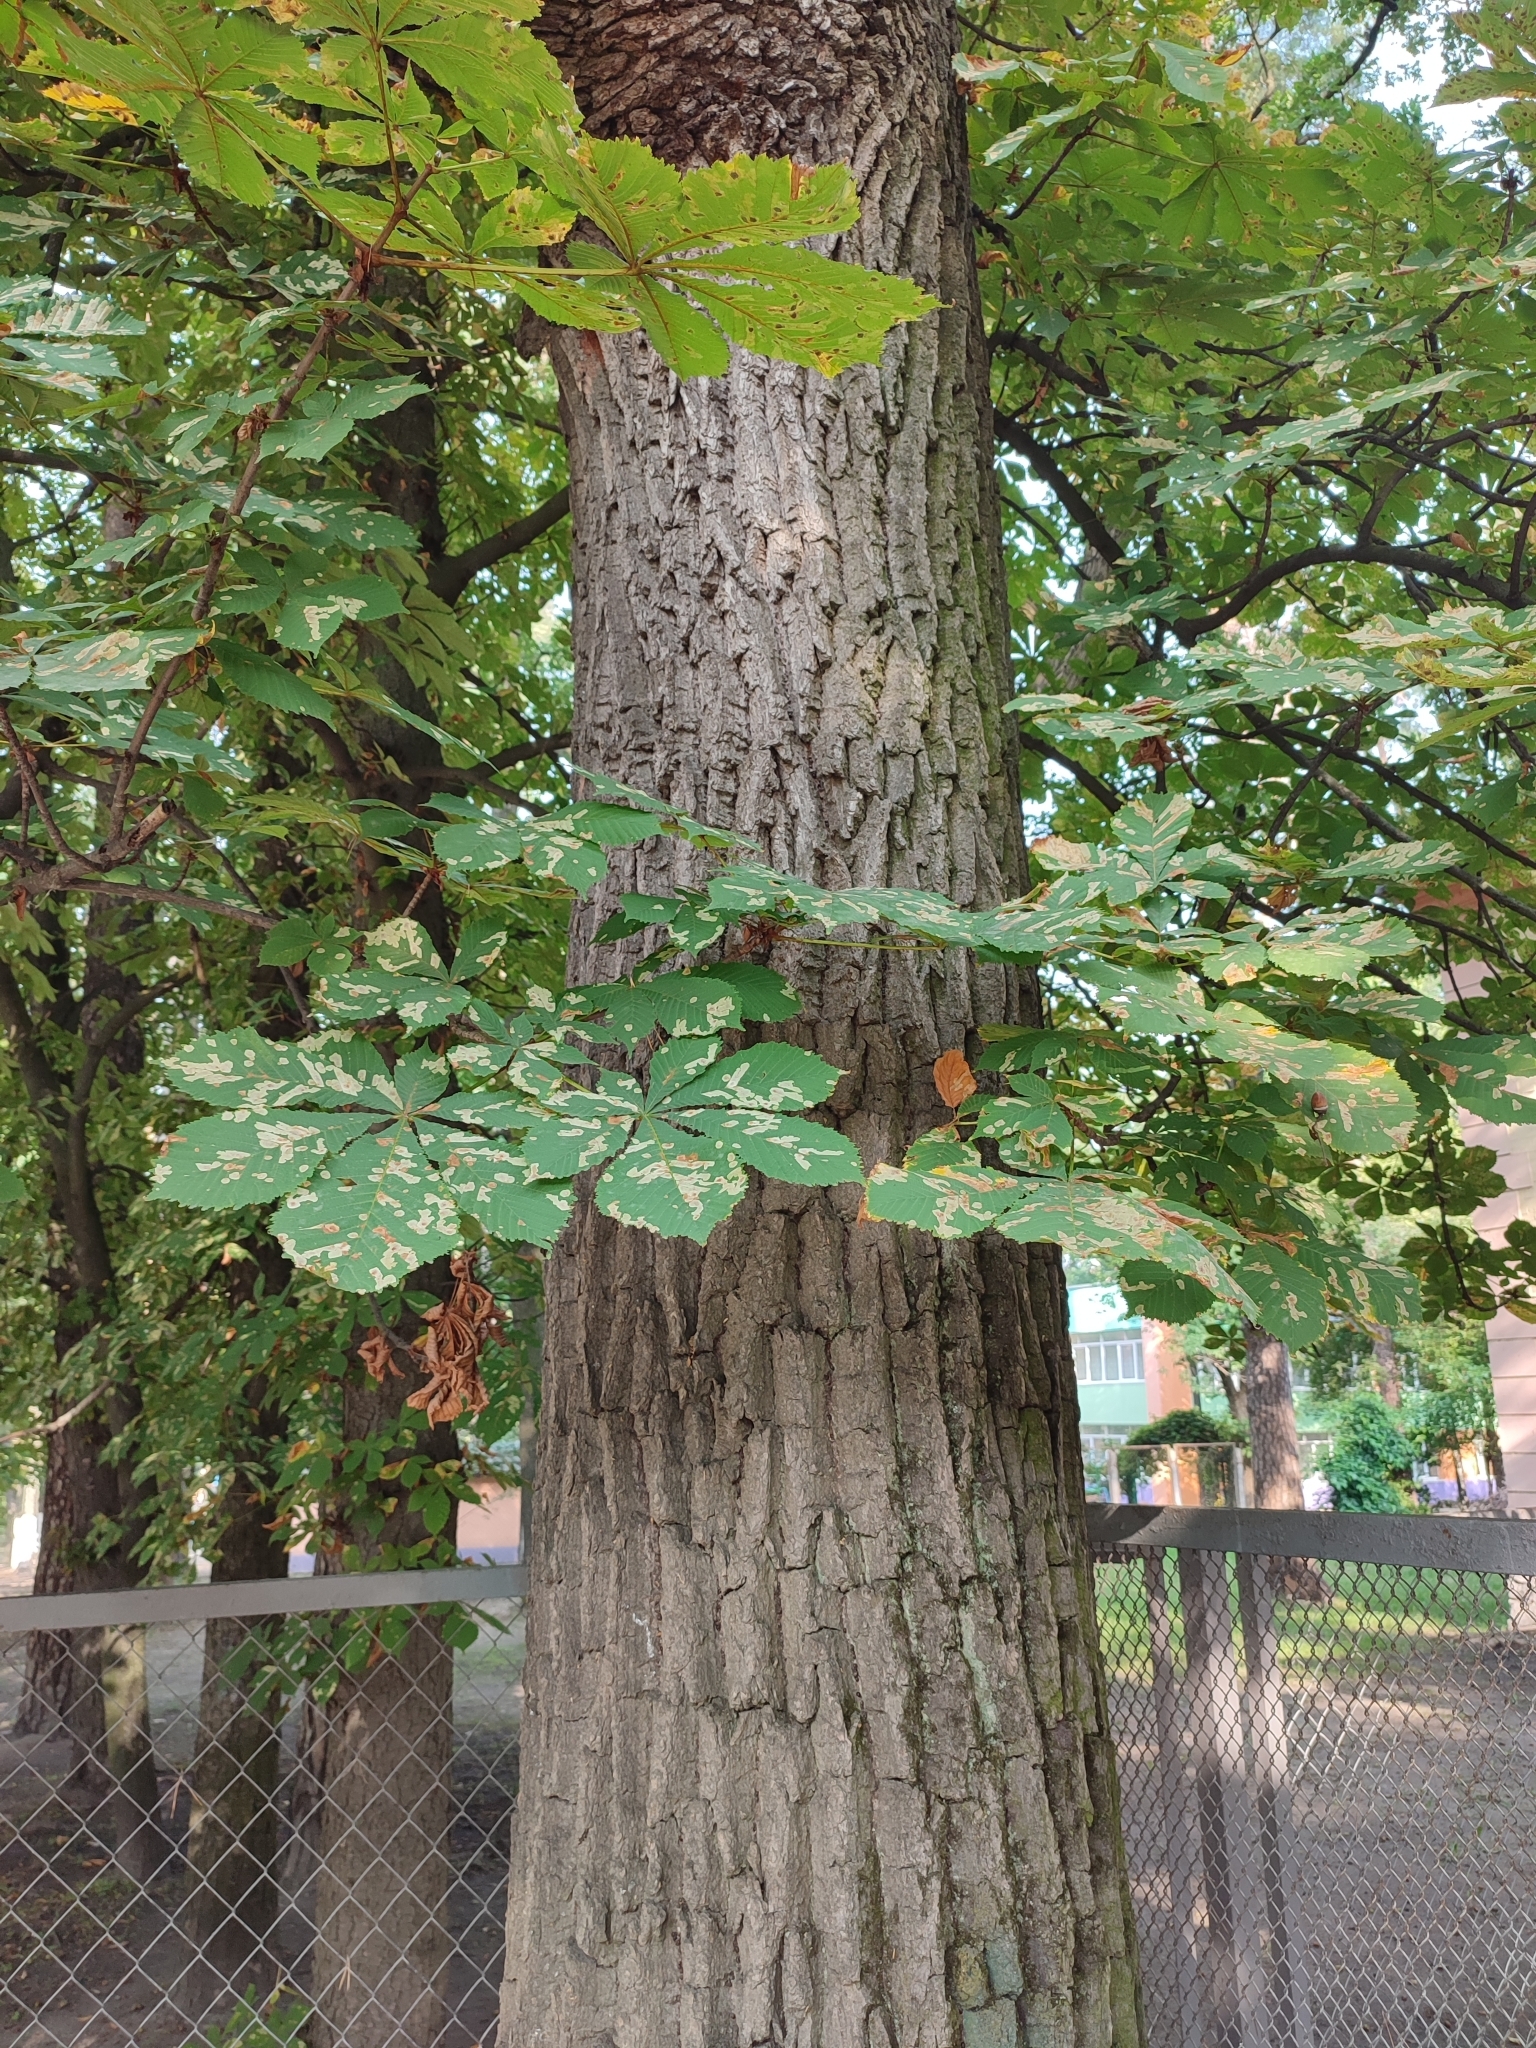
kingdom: Animalia
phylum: Arthropoda
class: Insecta
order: Lepidoptera
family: Gracillariidae
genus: Cameraria
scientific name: Cameraria ohridella
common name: Horse-chestnut leaf-miner
